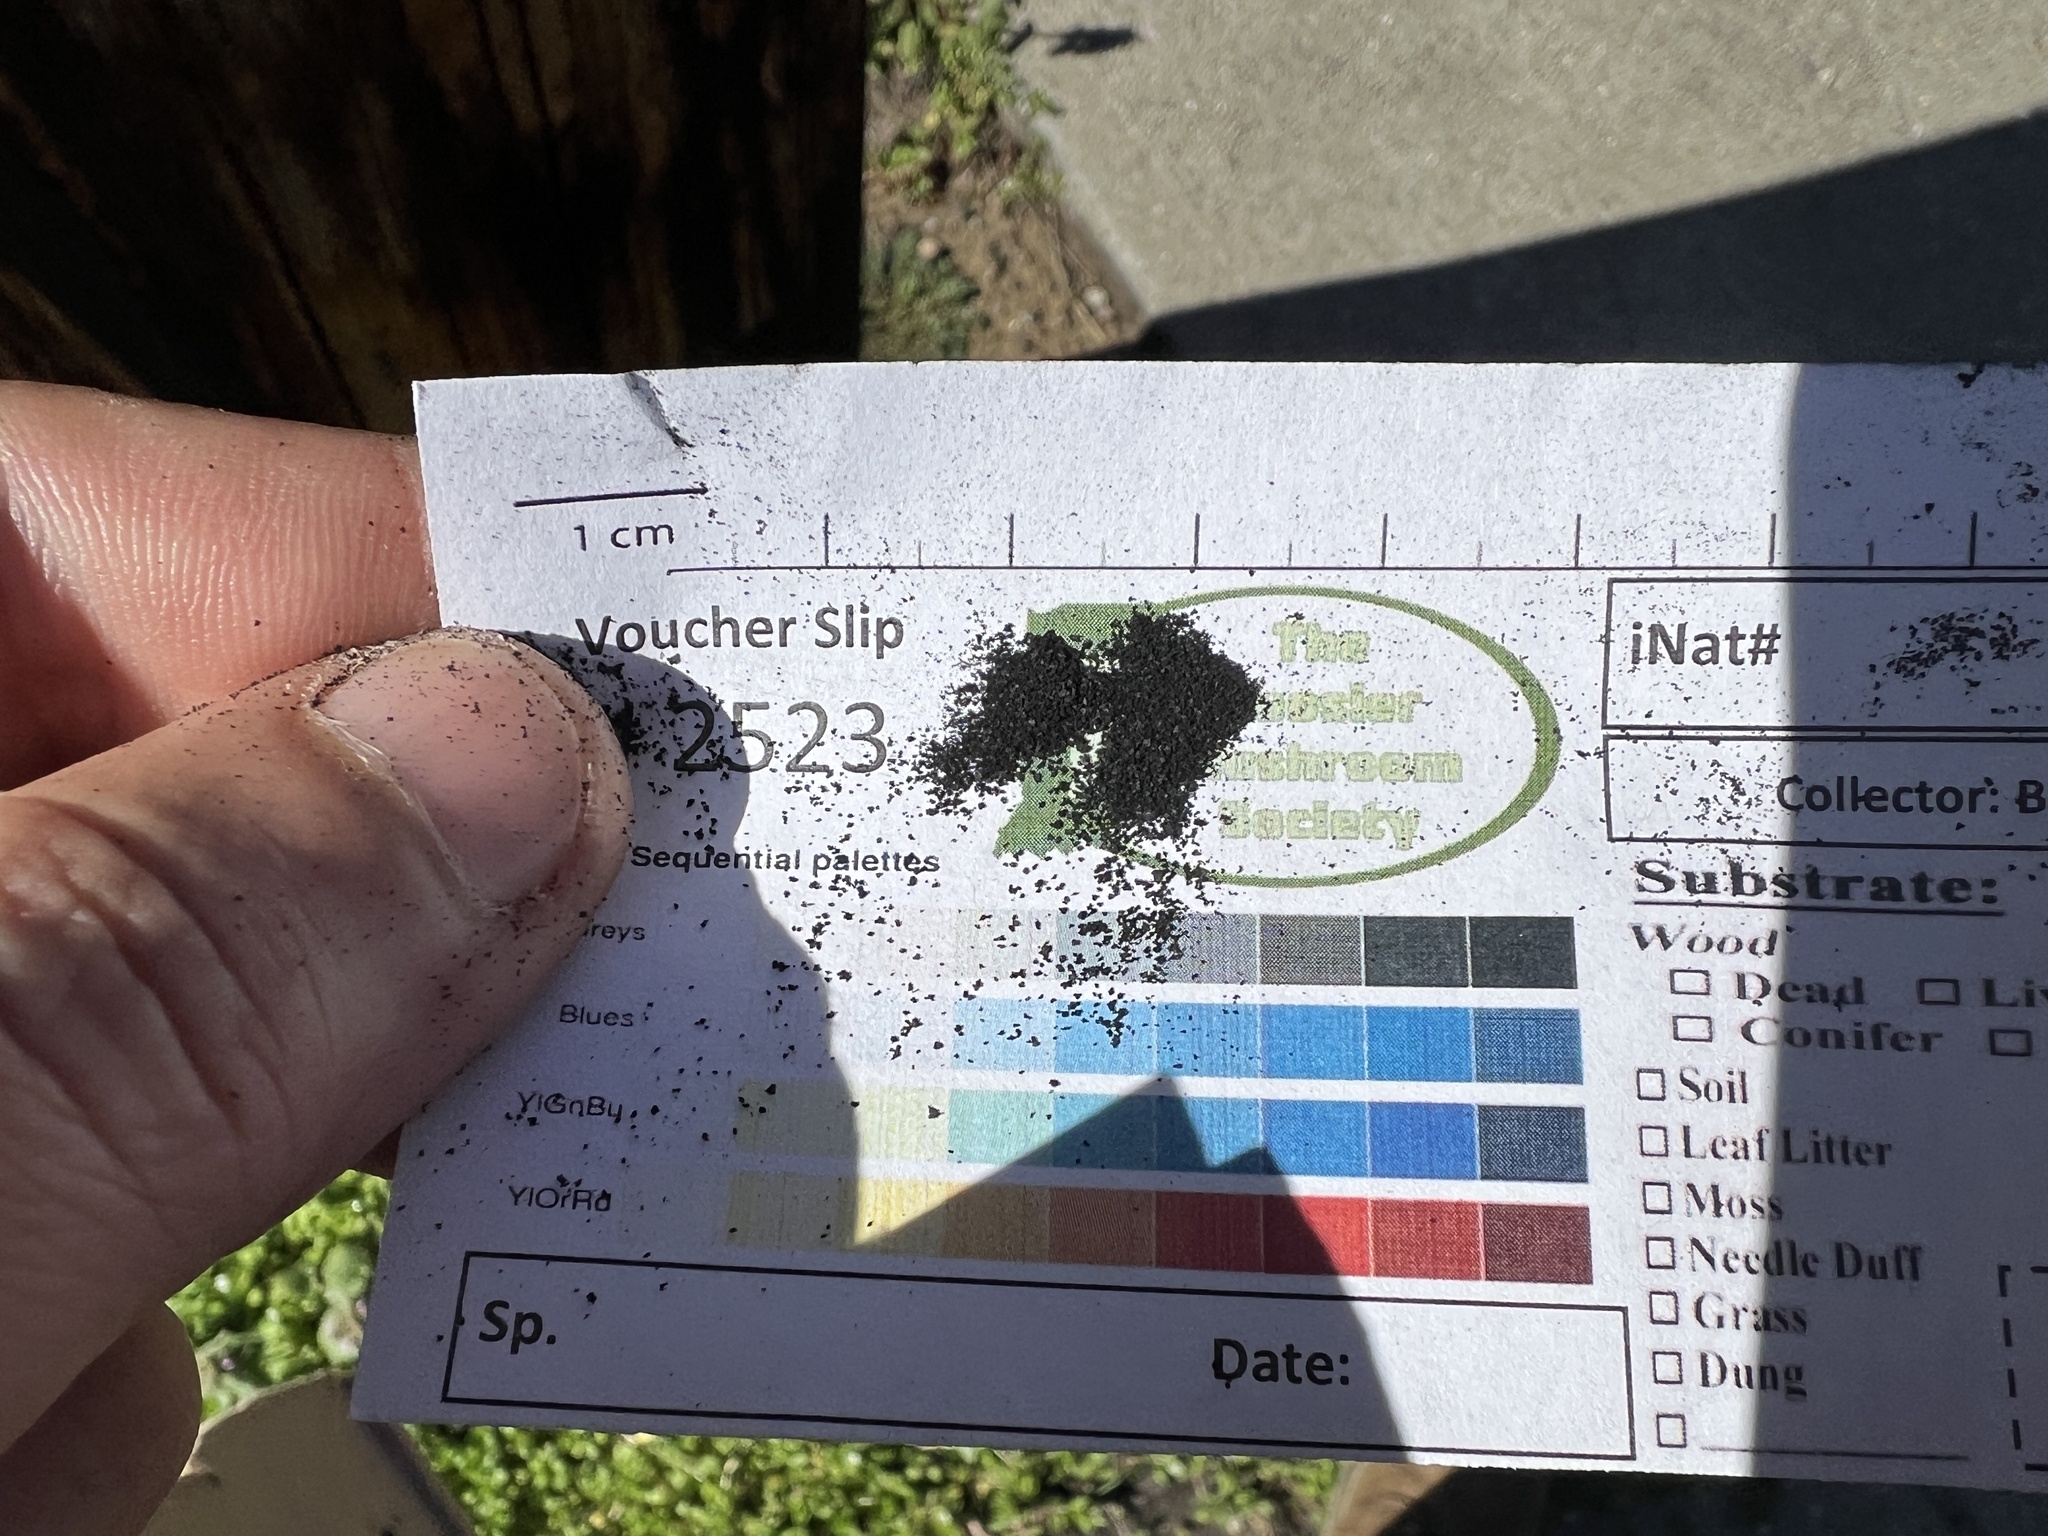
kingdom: Fungi
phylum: Ascomycota
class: Dothideomycetes
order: Capnodiales
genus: Baudoinia
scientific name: Baudoinia compniacensis
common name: Angel's share
